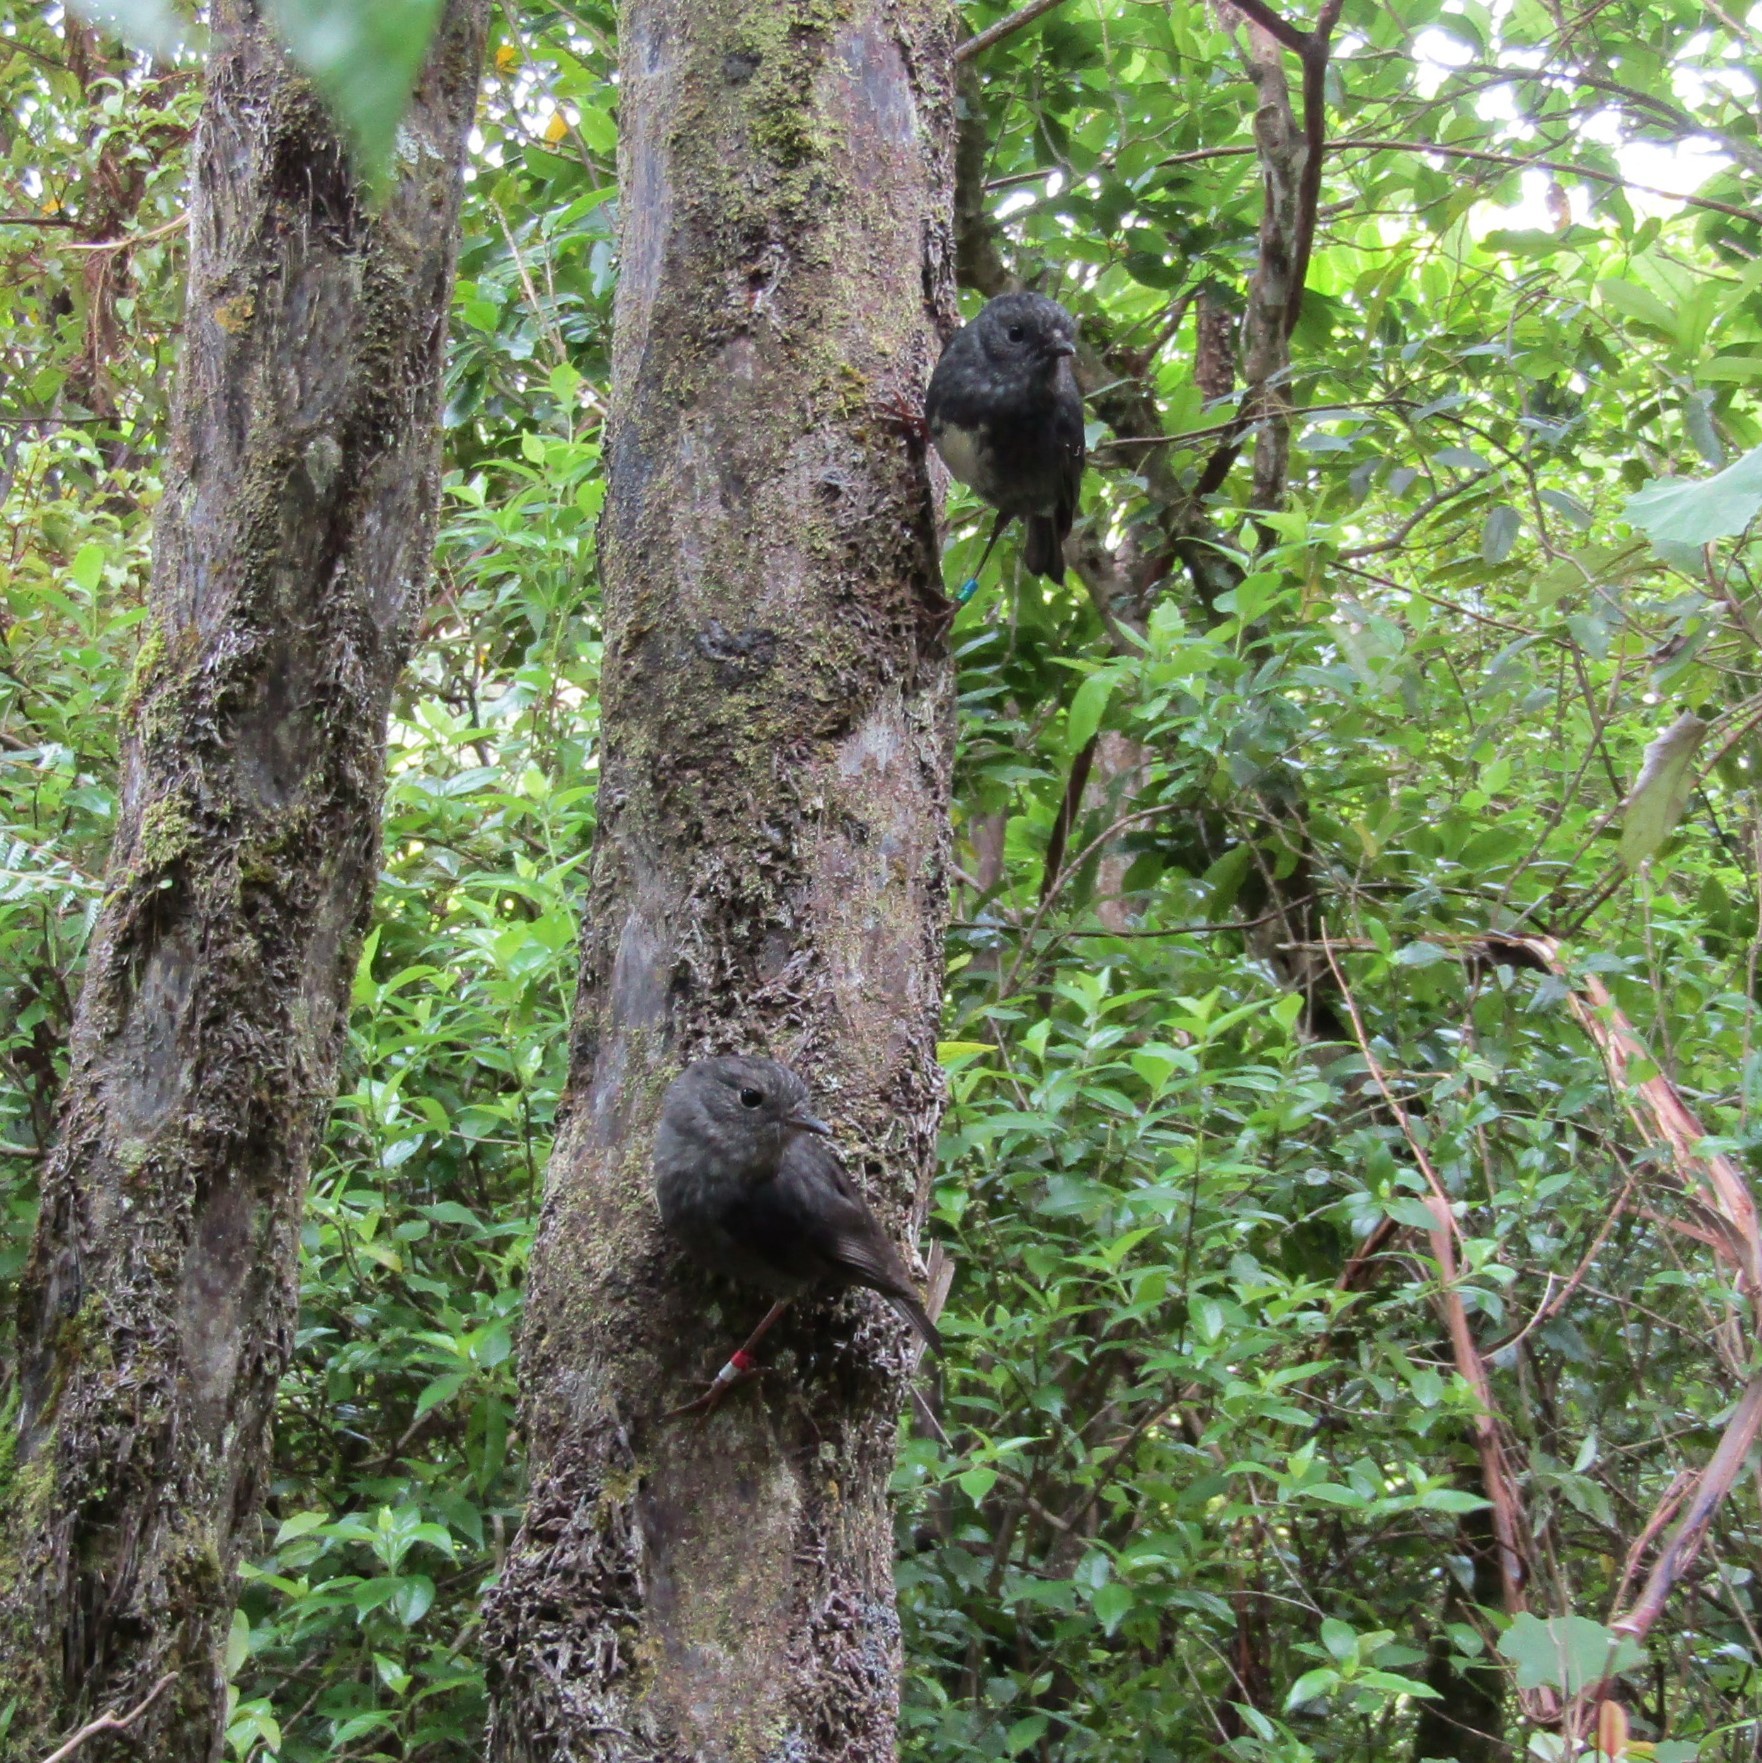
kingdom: Animalia
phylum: Chordata
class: Aves
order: Passeriformes
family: Petroicidae
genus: Petroica
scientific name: Petroica australis
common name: New zealand robin
